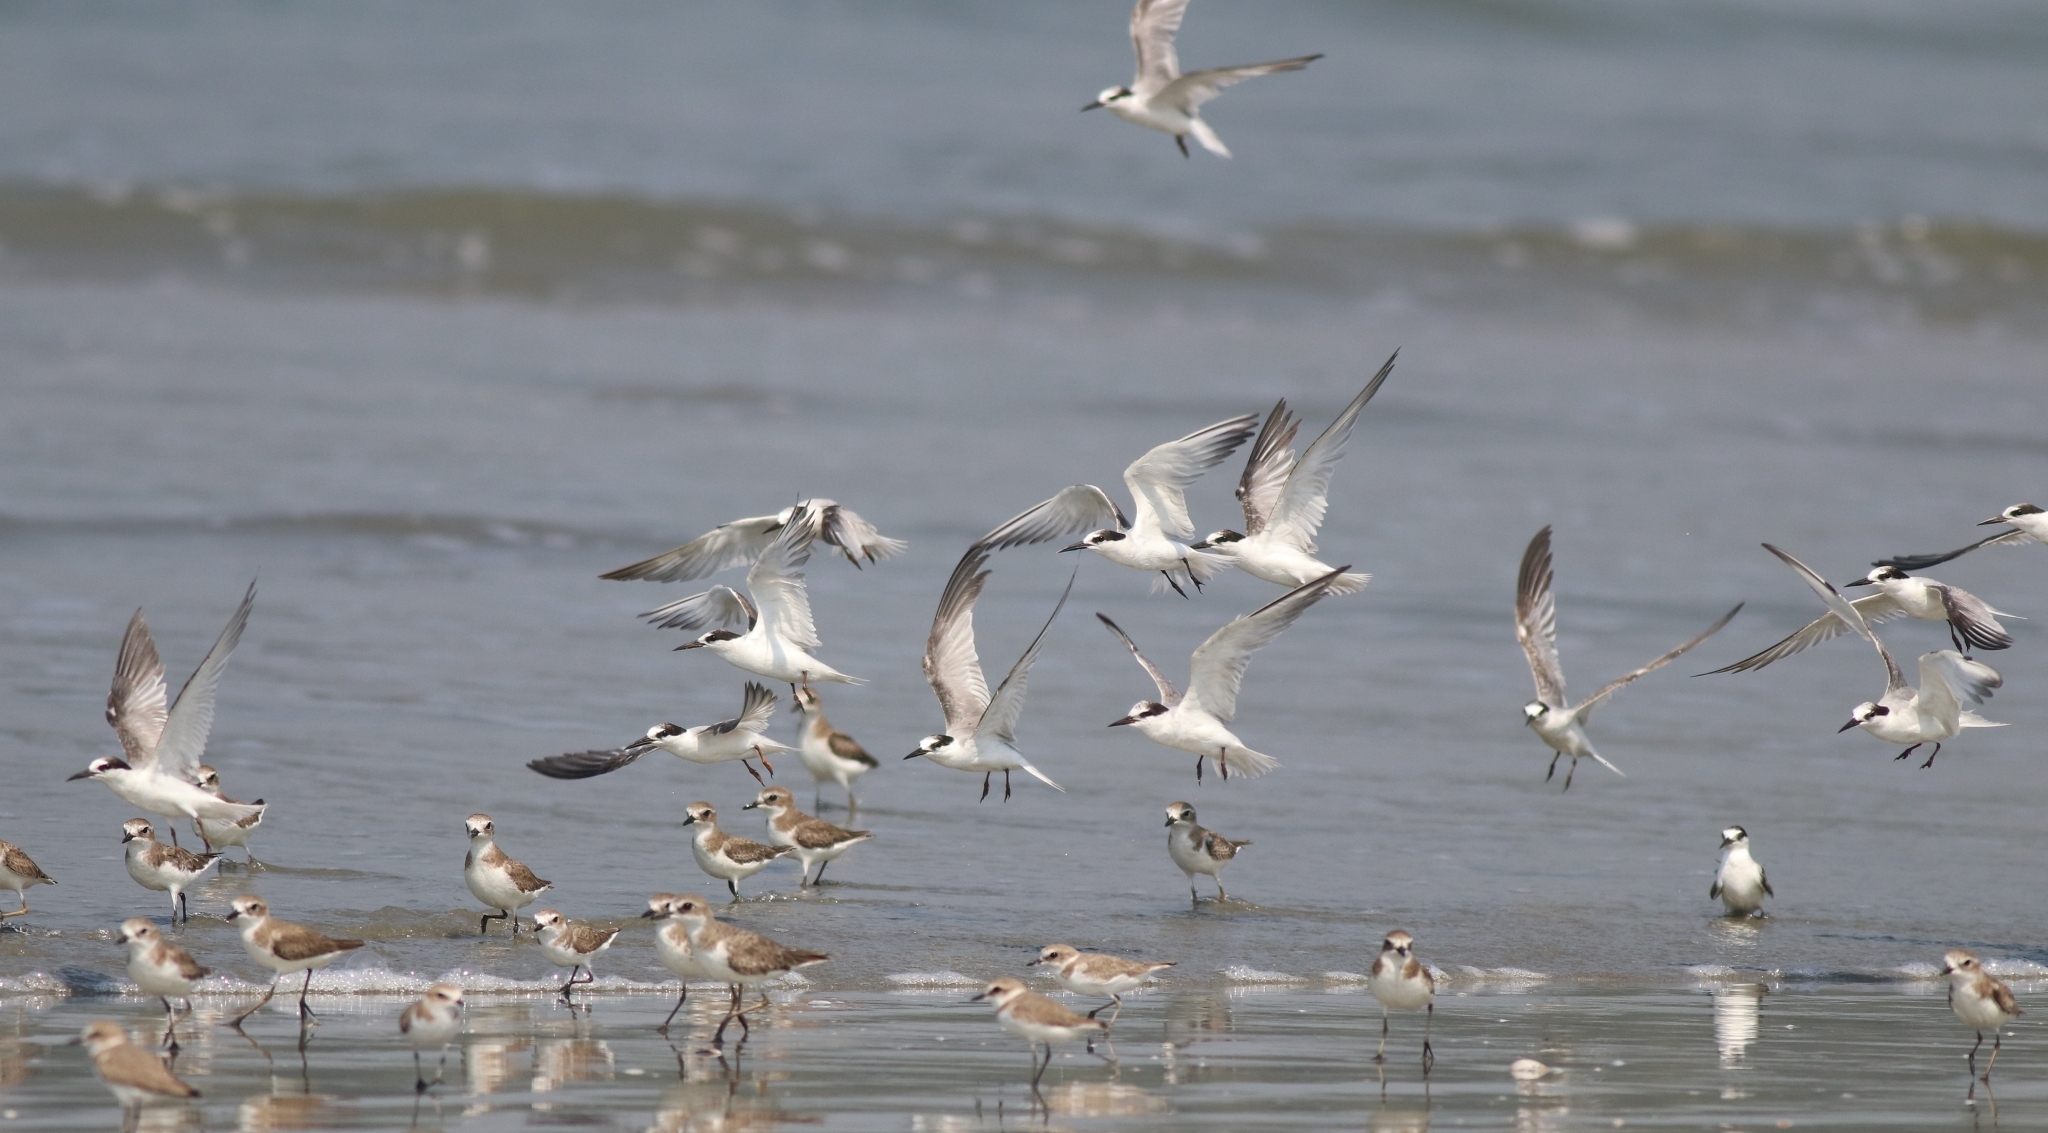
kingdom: Animalia
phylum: Chordata
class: Aves
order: Charadriiformes
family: Charadriidae
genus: Anarhynchus
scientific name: Anarhynchus
